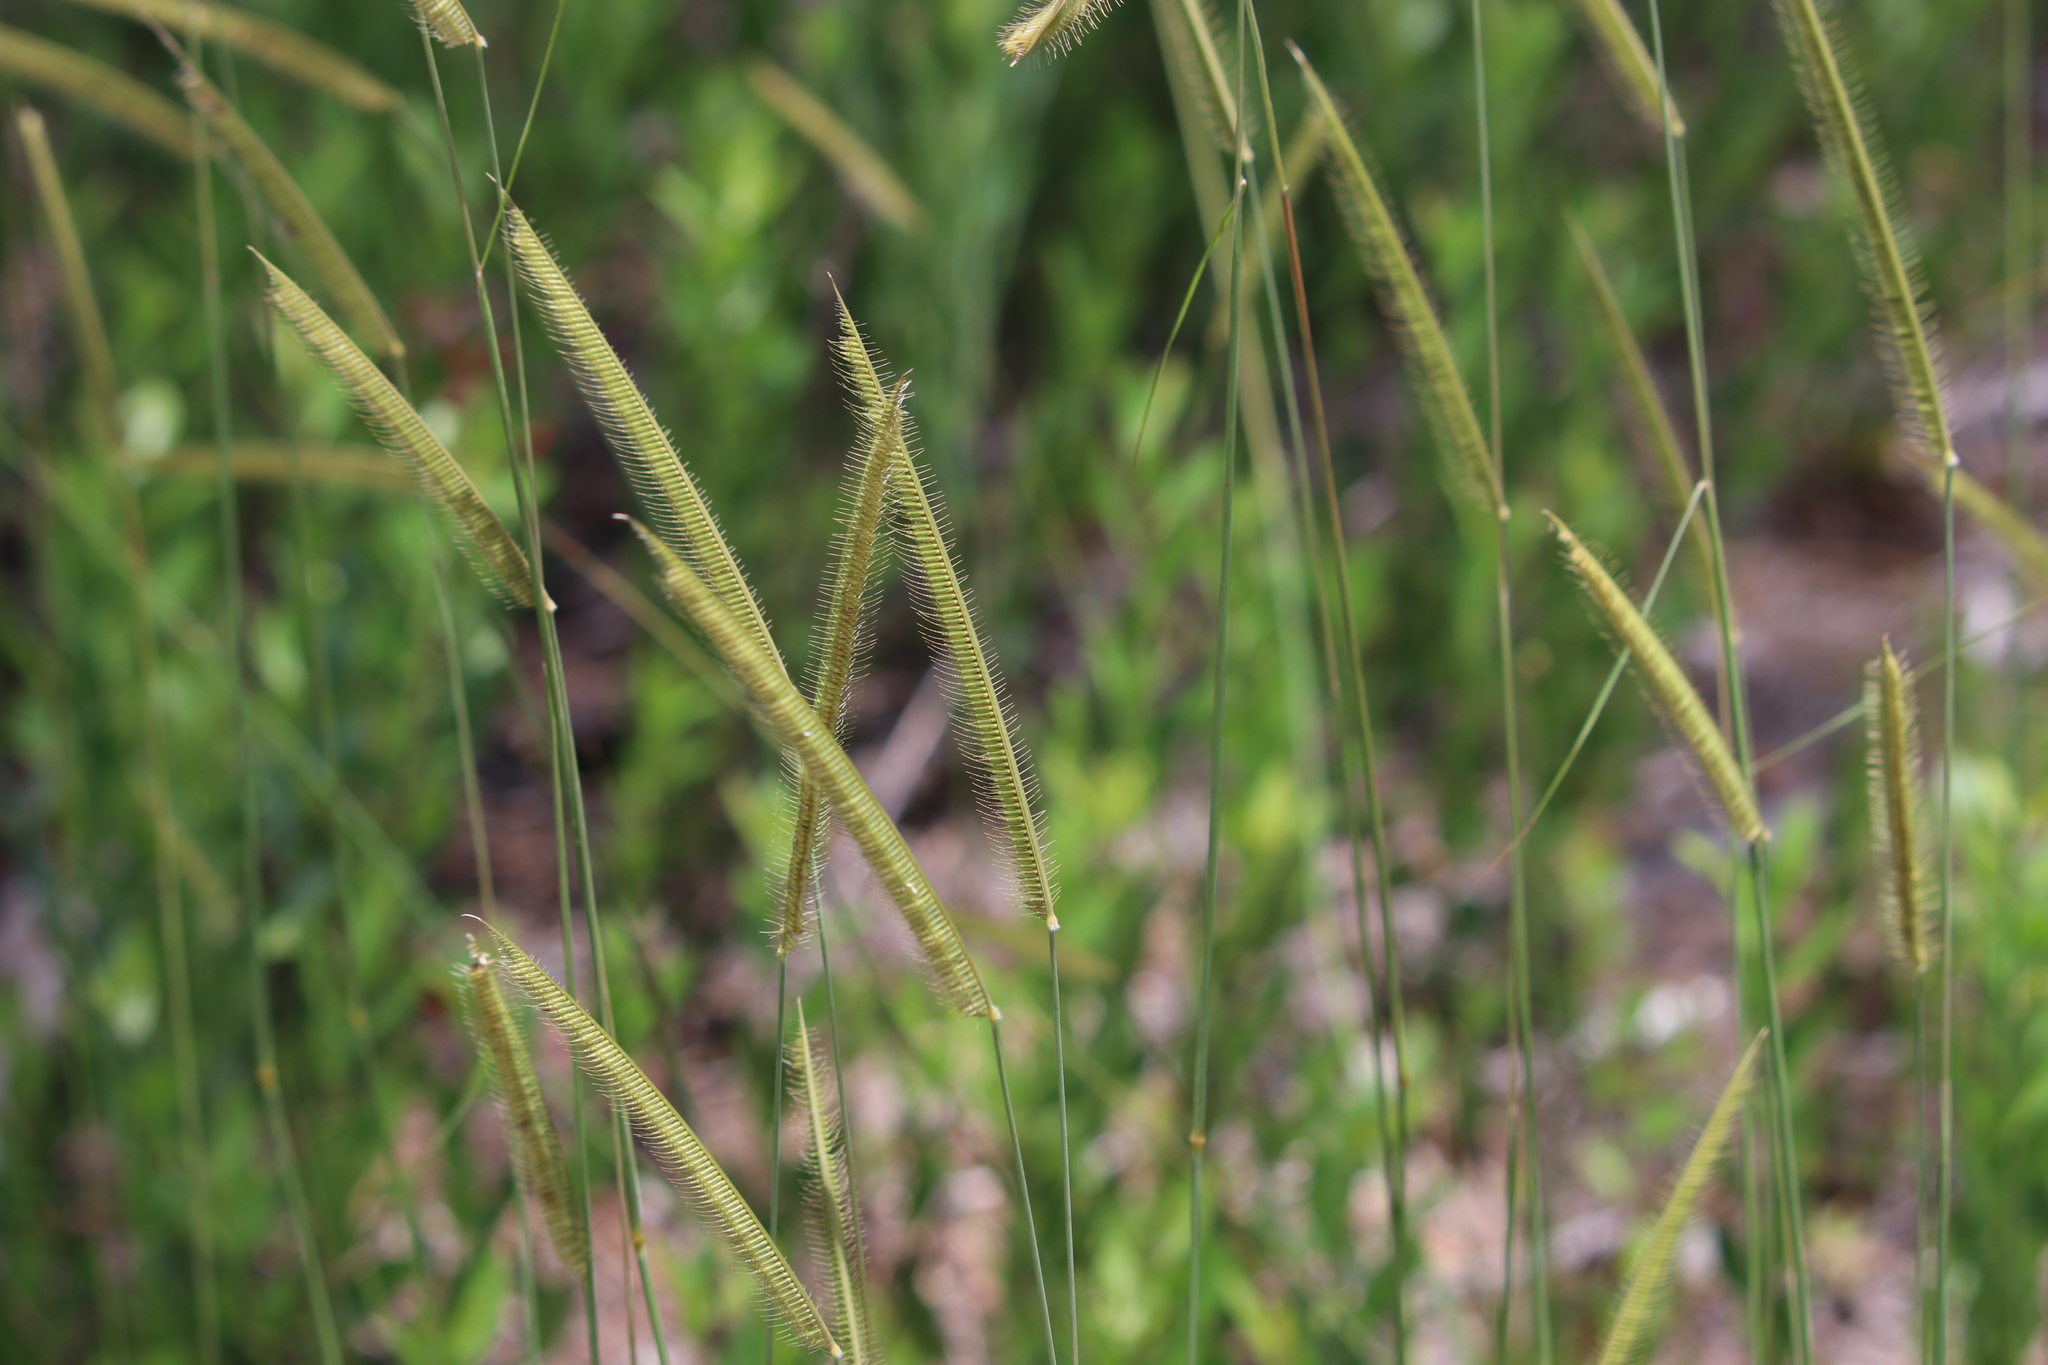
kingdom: Plantae
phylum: Tracheophyta
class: Liliopsida
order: Poales
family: Poaceae
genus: Ctenium
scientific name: Ctenium aromaticum
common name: Toothache grass
